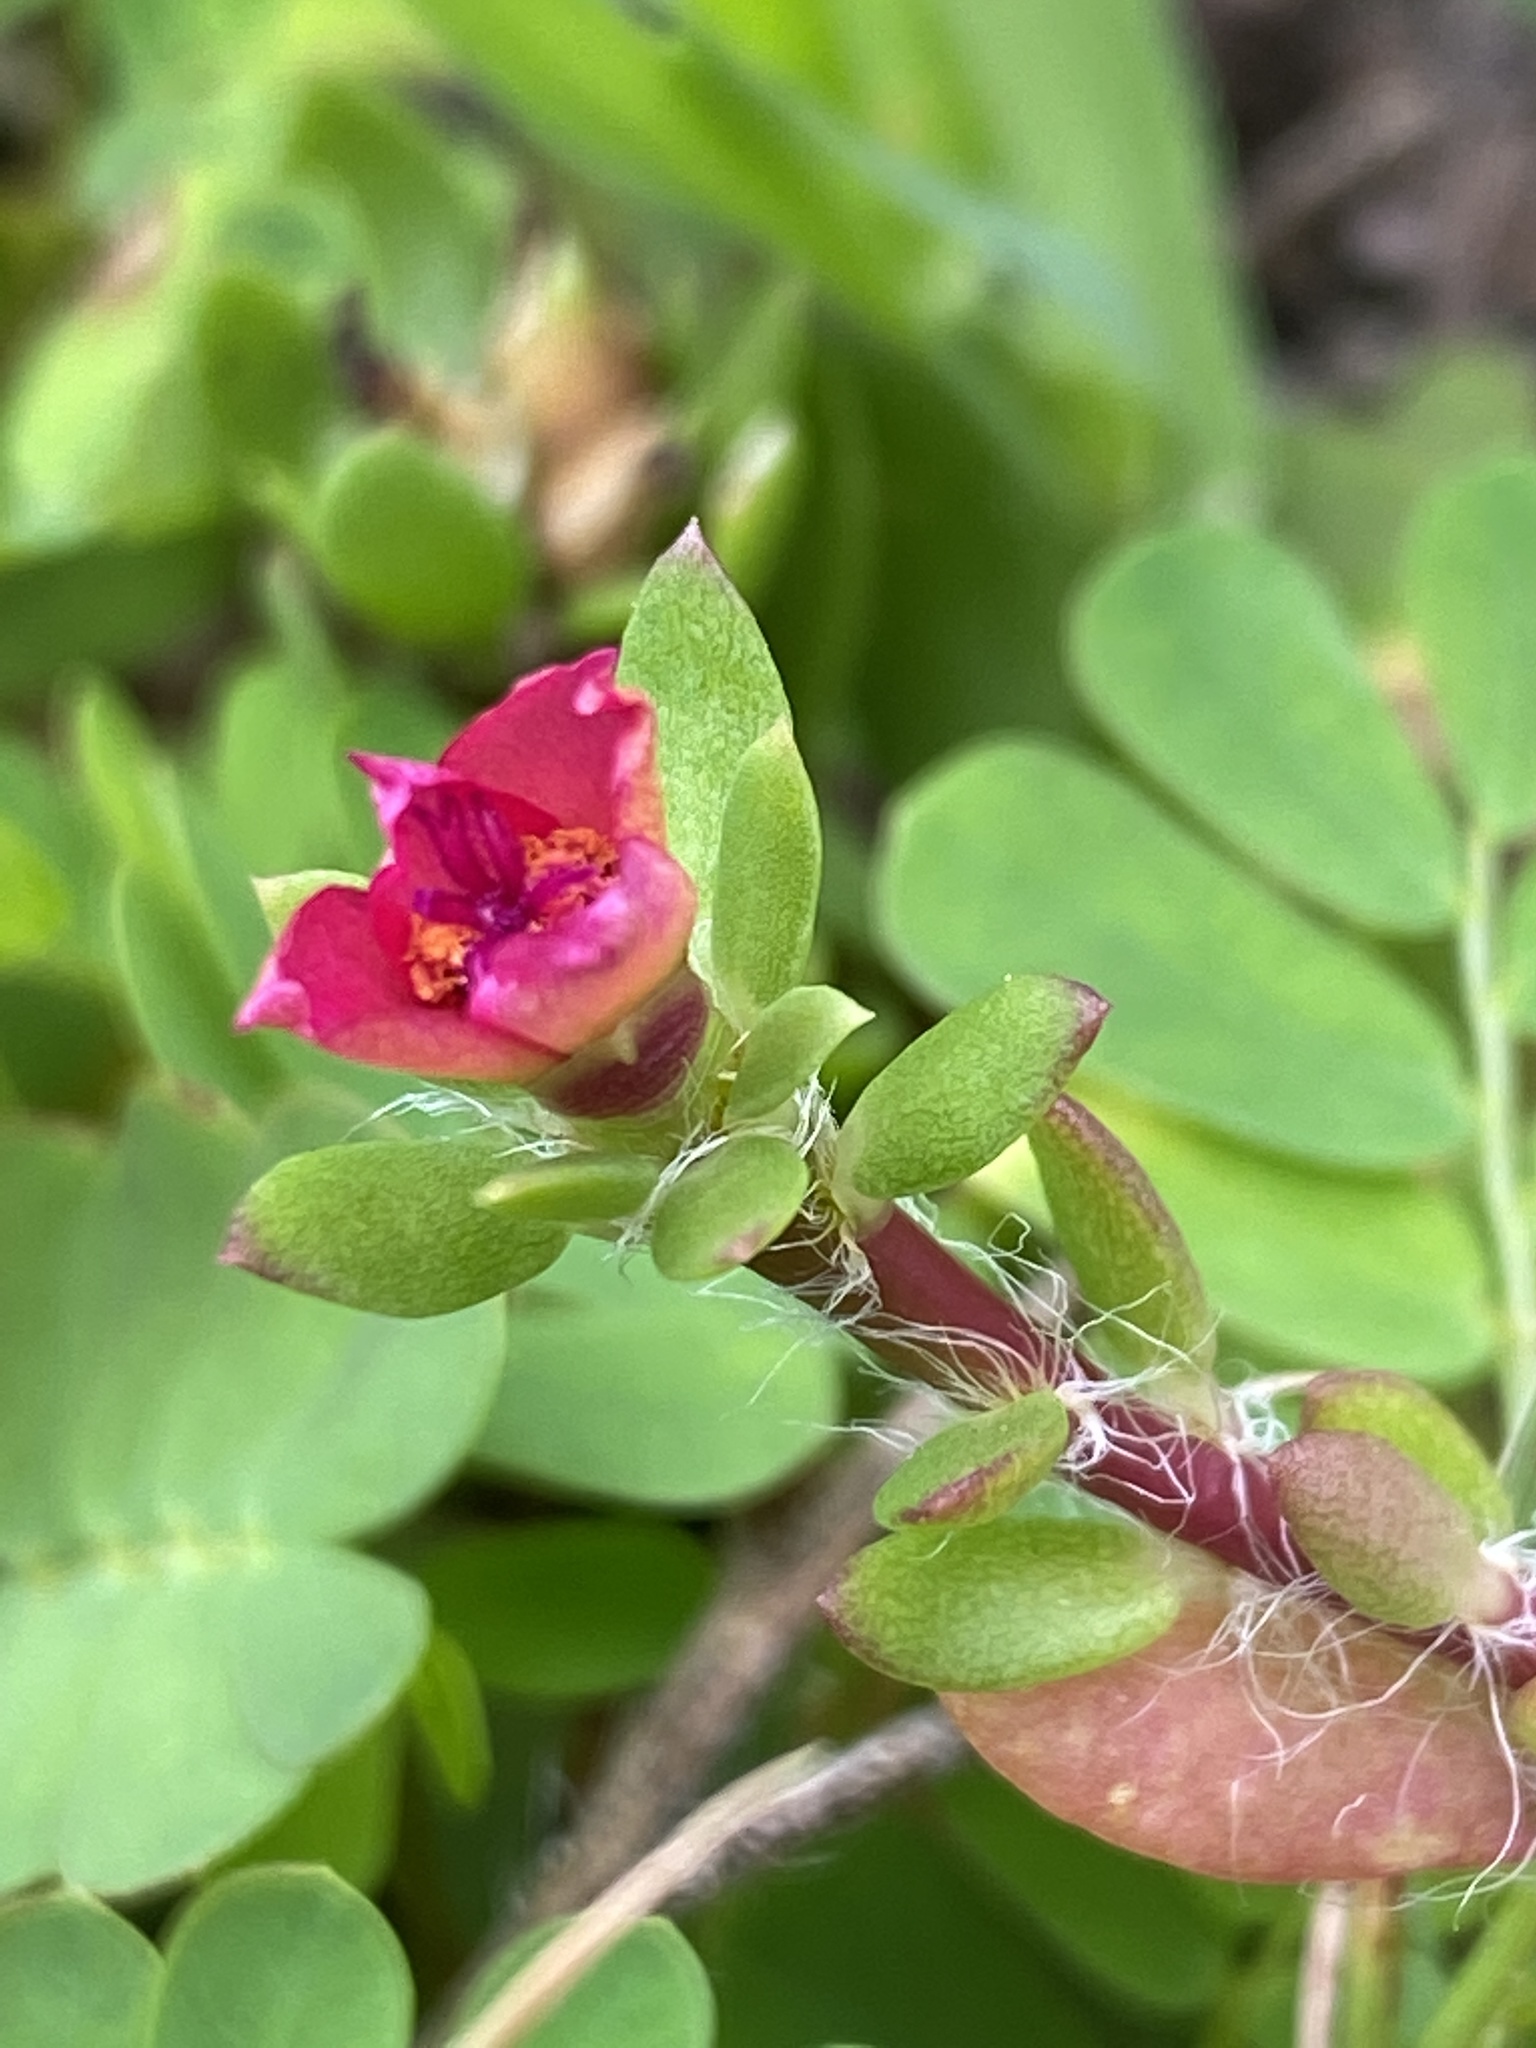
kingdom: Plantae
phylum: Tracheophyta
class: Magnoliopsida
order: Caryophyllales
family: Portulacaceae
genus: Portulaca
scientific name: Portulaca pilosa
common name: Kiss me quick
